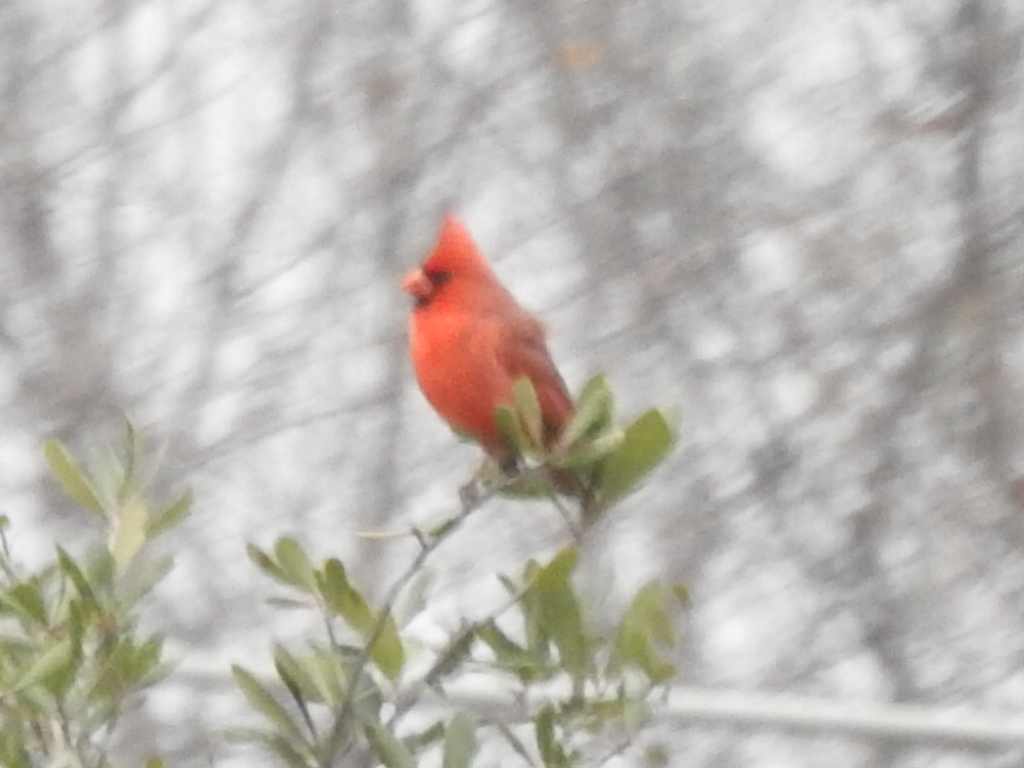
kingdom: Animalia
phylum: Chordata
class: Aves
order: Passeriformes
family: Cardinalidae
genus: Cardinalis
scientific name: Cardinalis cardinalis
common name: Northern cardinal
